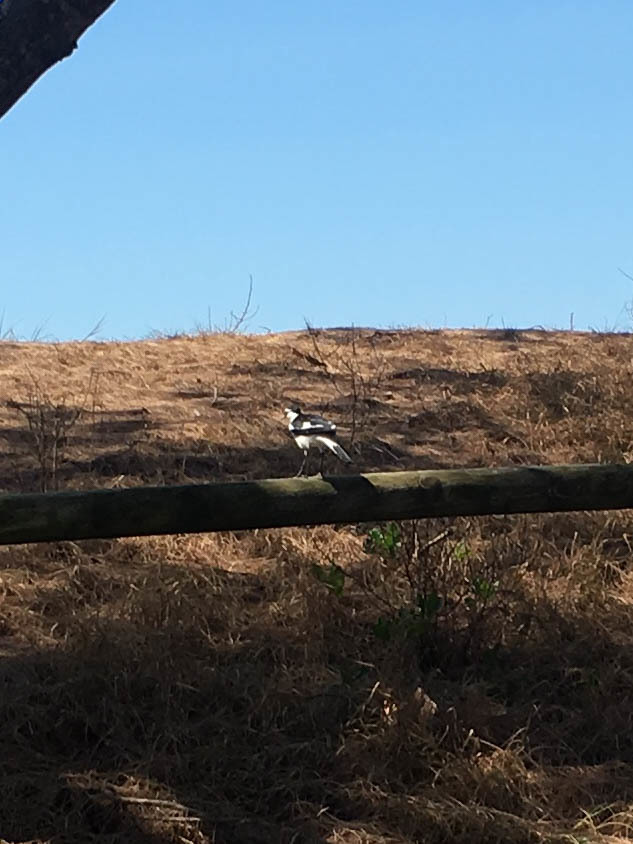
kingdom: Animalia
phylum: Chordata
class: Aves
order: Passeriformes
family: Monarchidae
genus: Grallina
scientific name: Grallina cyanoleuca
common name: Magpie-lark
